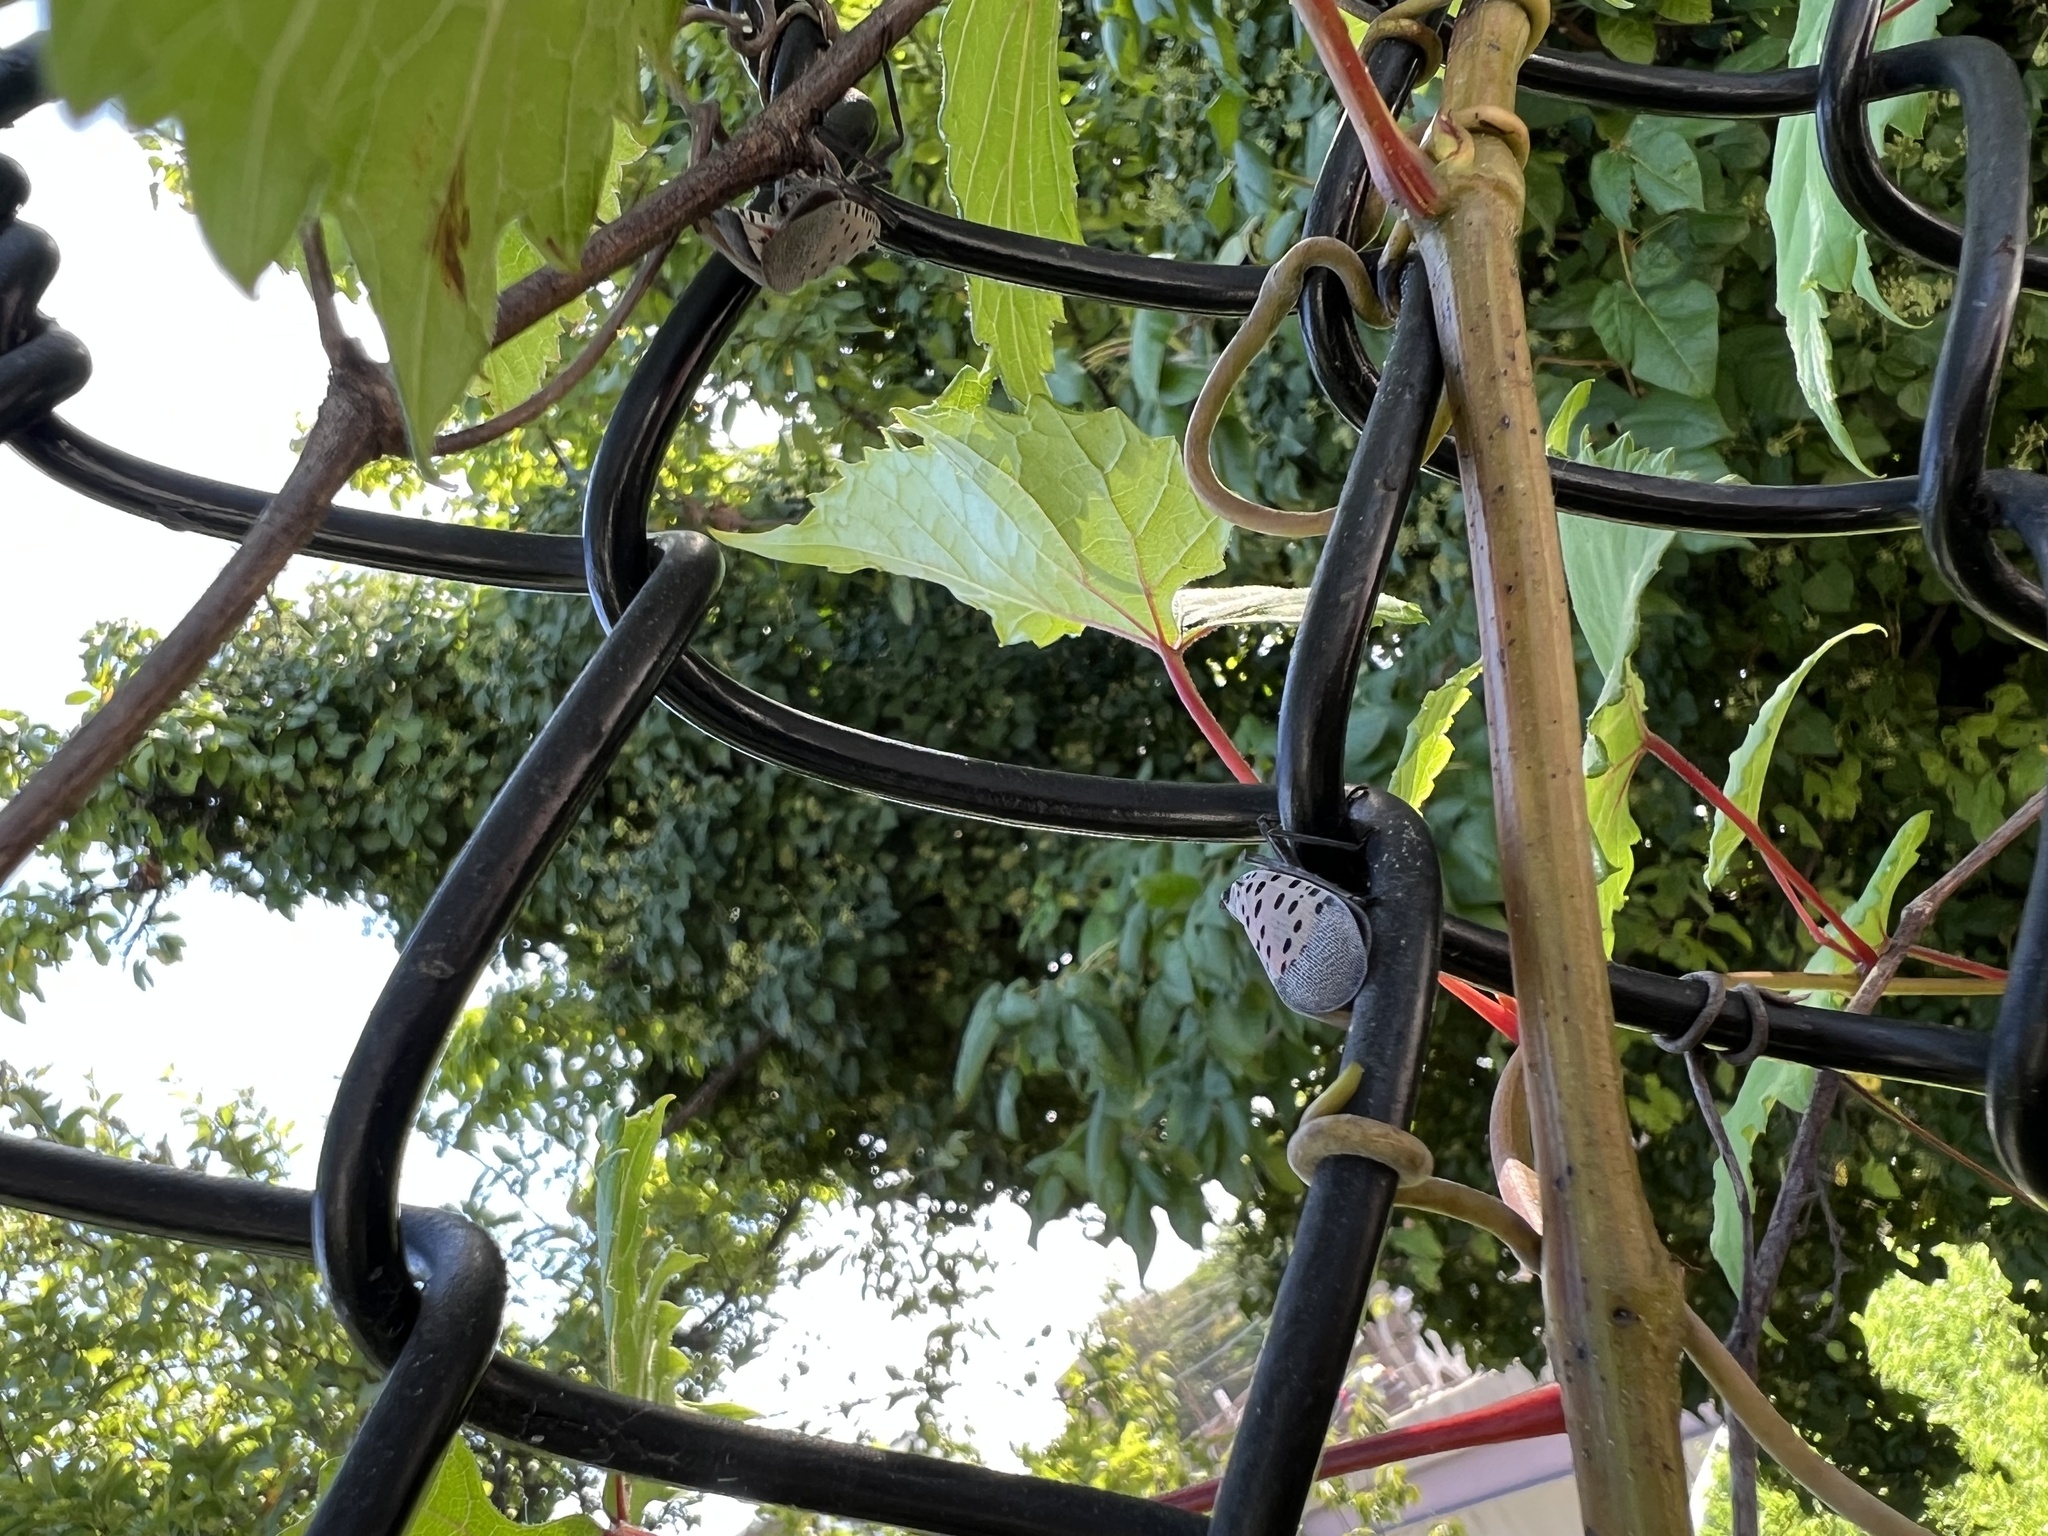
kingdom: Animalia
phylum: Arthropoda
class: Insecta
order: Hemiptera
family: Fulgoridae
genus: Lycorma
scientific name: Lycorma delicatula
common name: Spotted lanternfly
